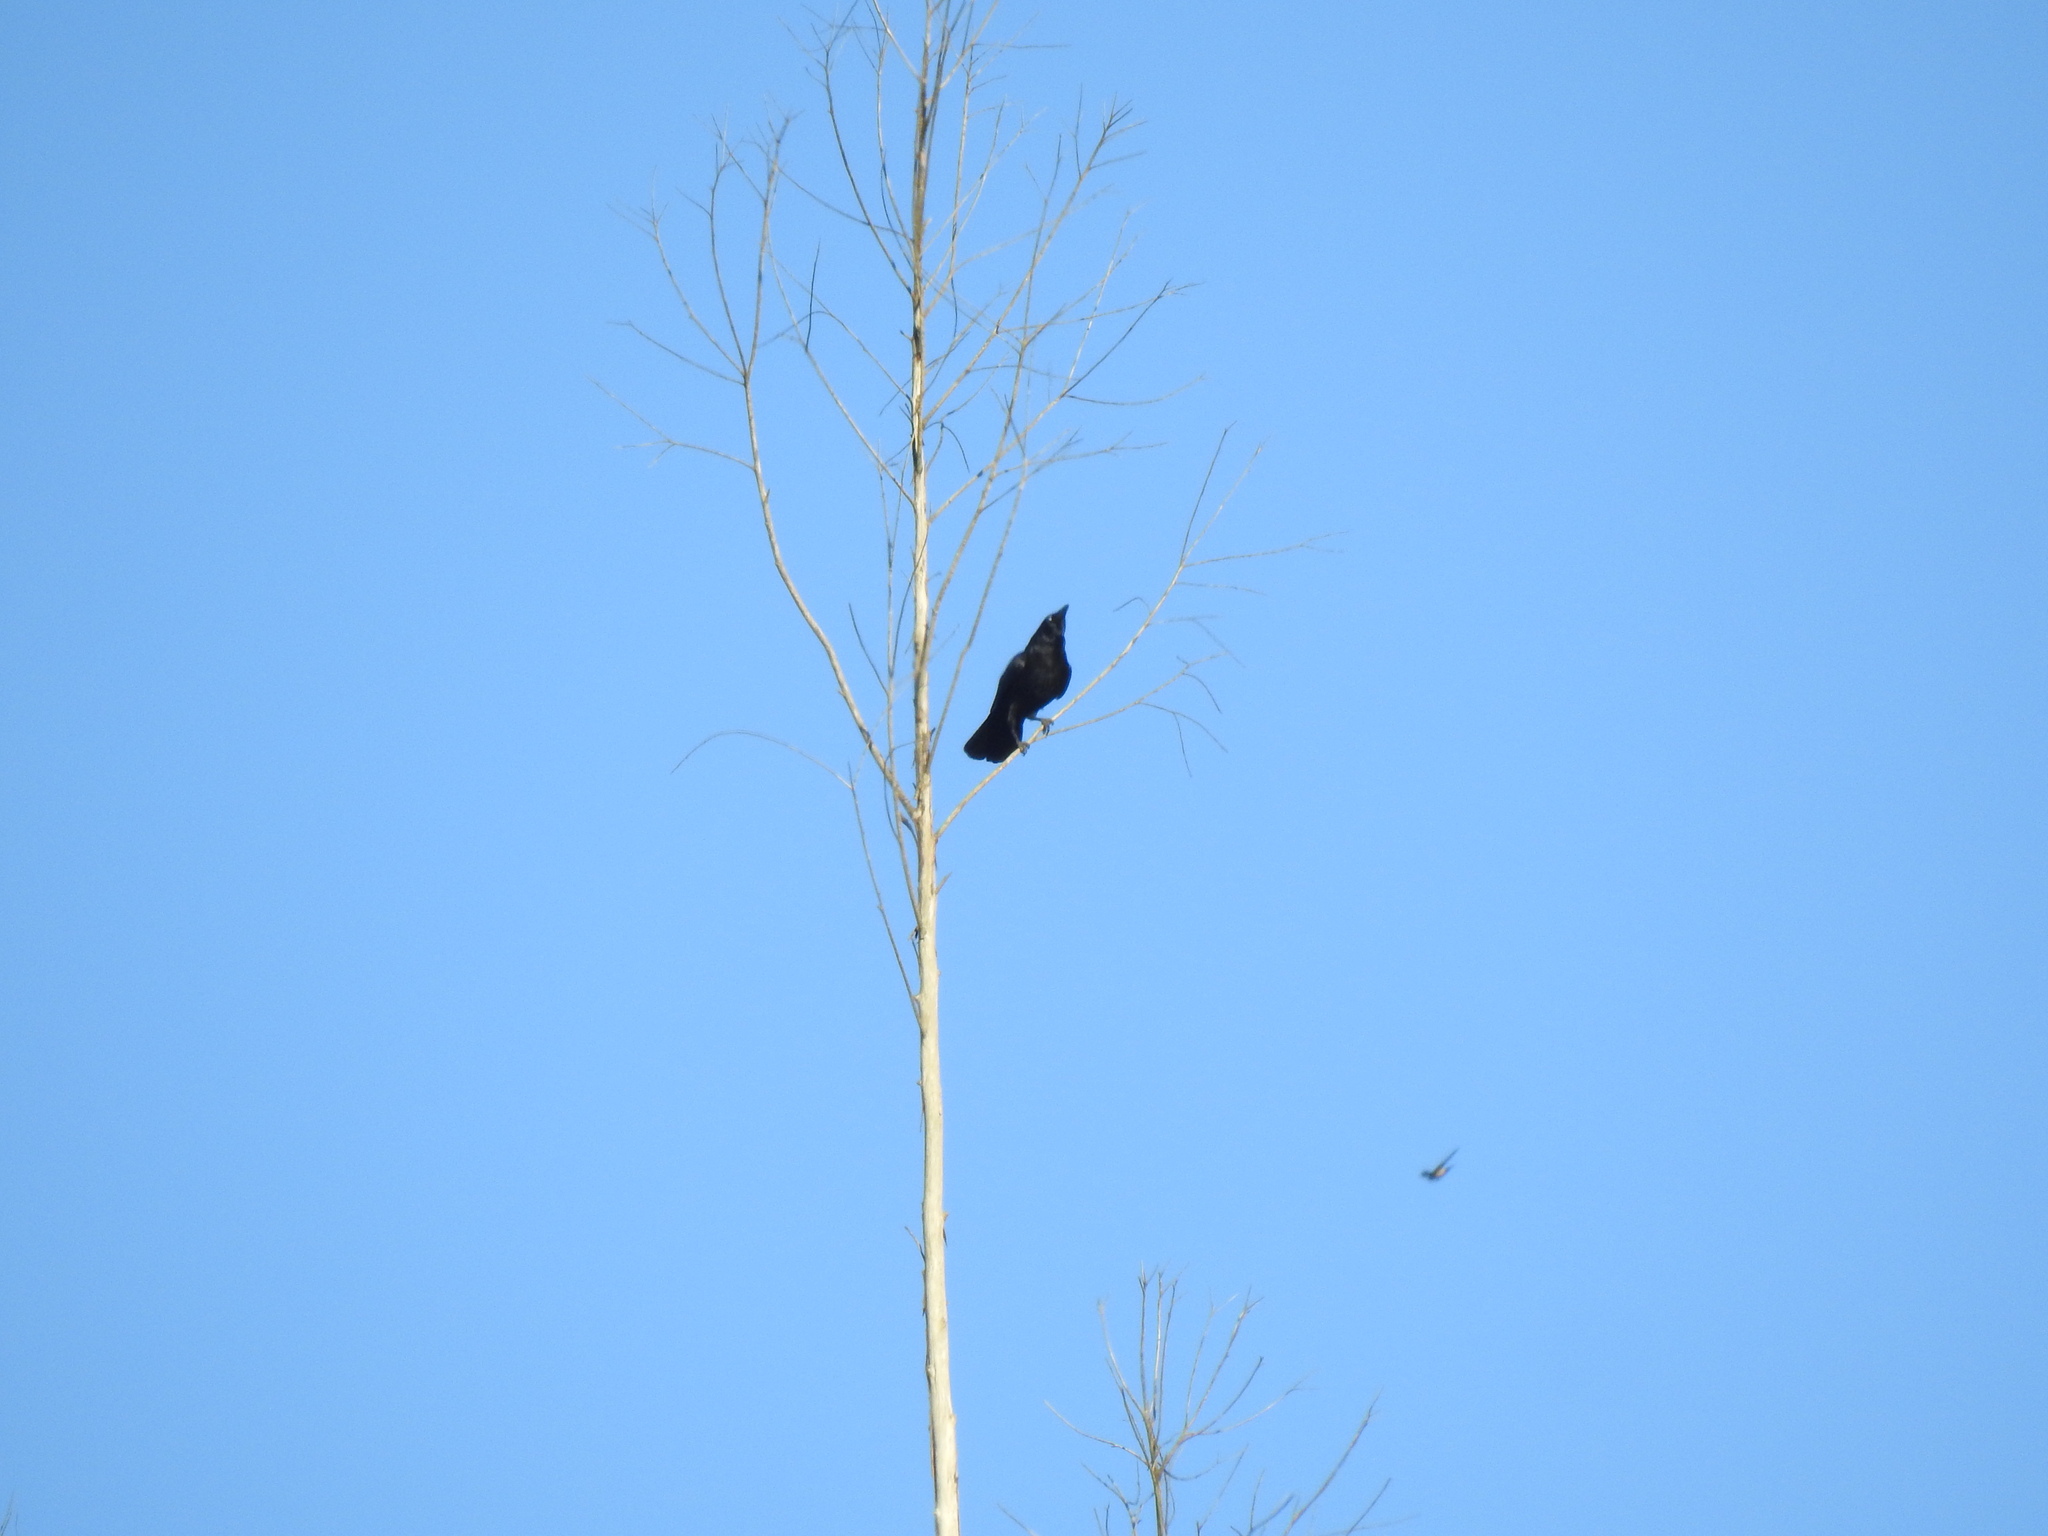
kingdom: Animalia
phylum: Chordata
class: Aves
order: Passeriformes
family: Corvidae
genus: Corvus
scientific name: Corvus corone
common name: Carrion crow
